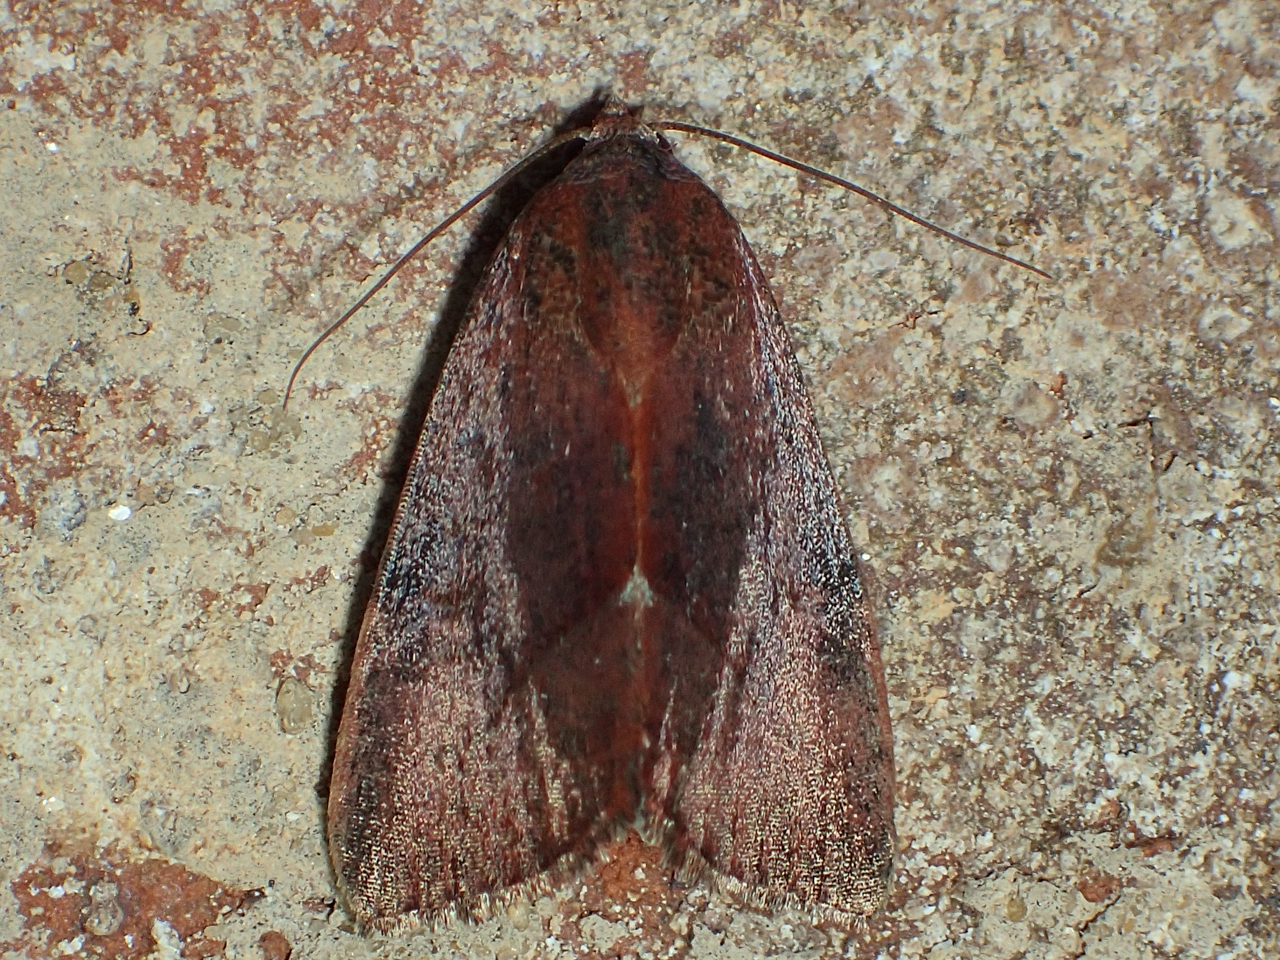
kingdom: Animalia
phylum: Arthropoda
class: Insecta
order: Lepidoptera
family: Noctuidae
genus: Galgula
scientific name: Galgula partita
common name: Wedgeling
